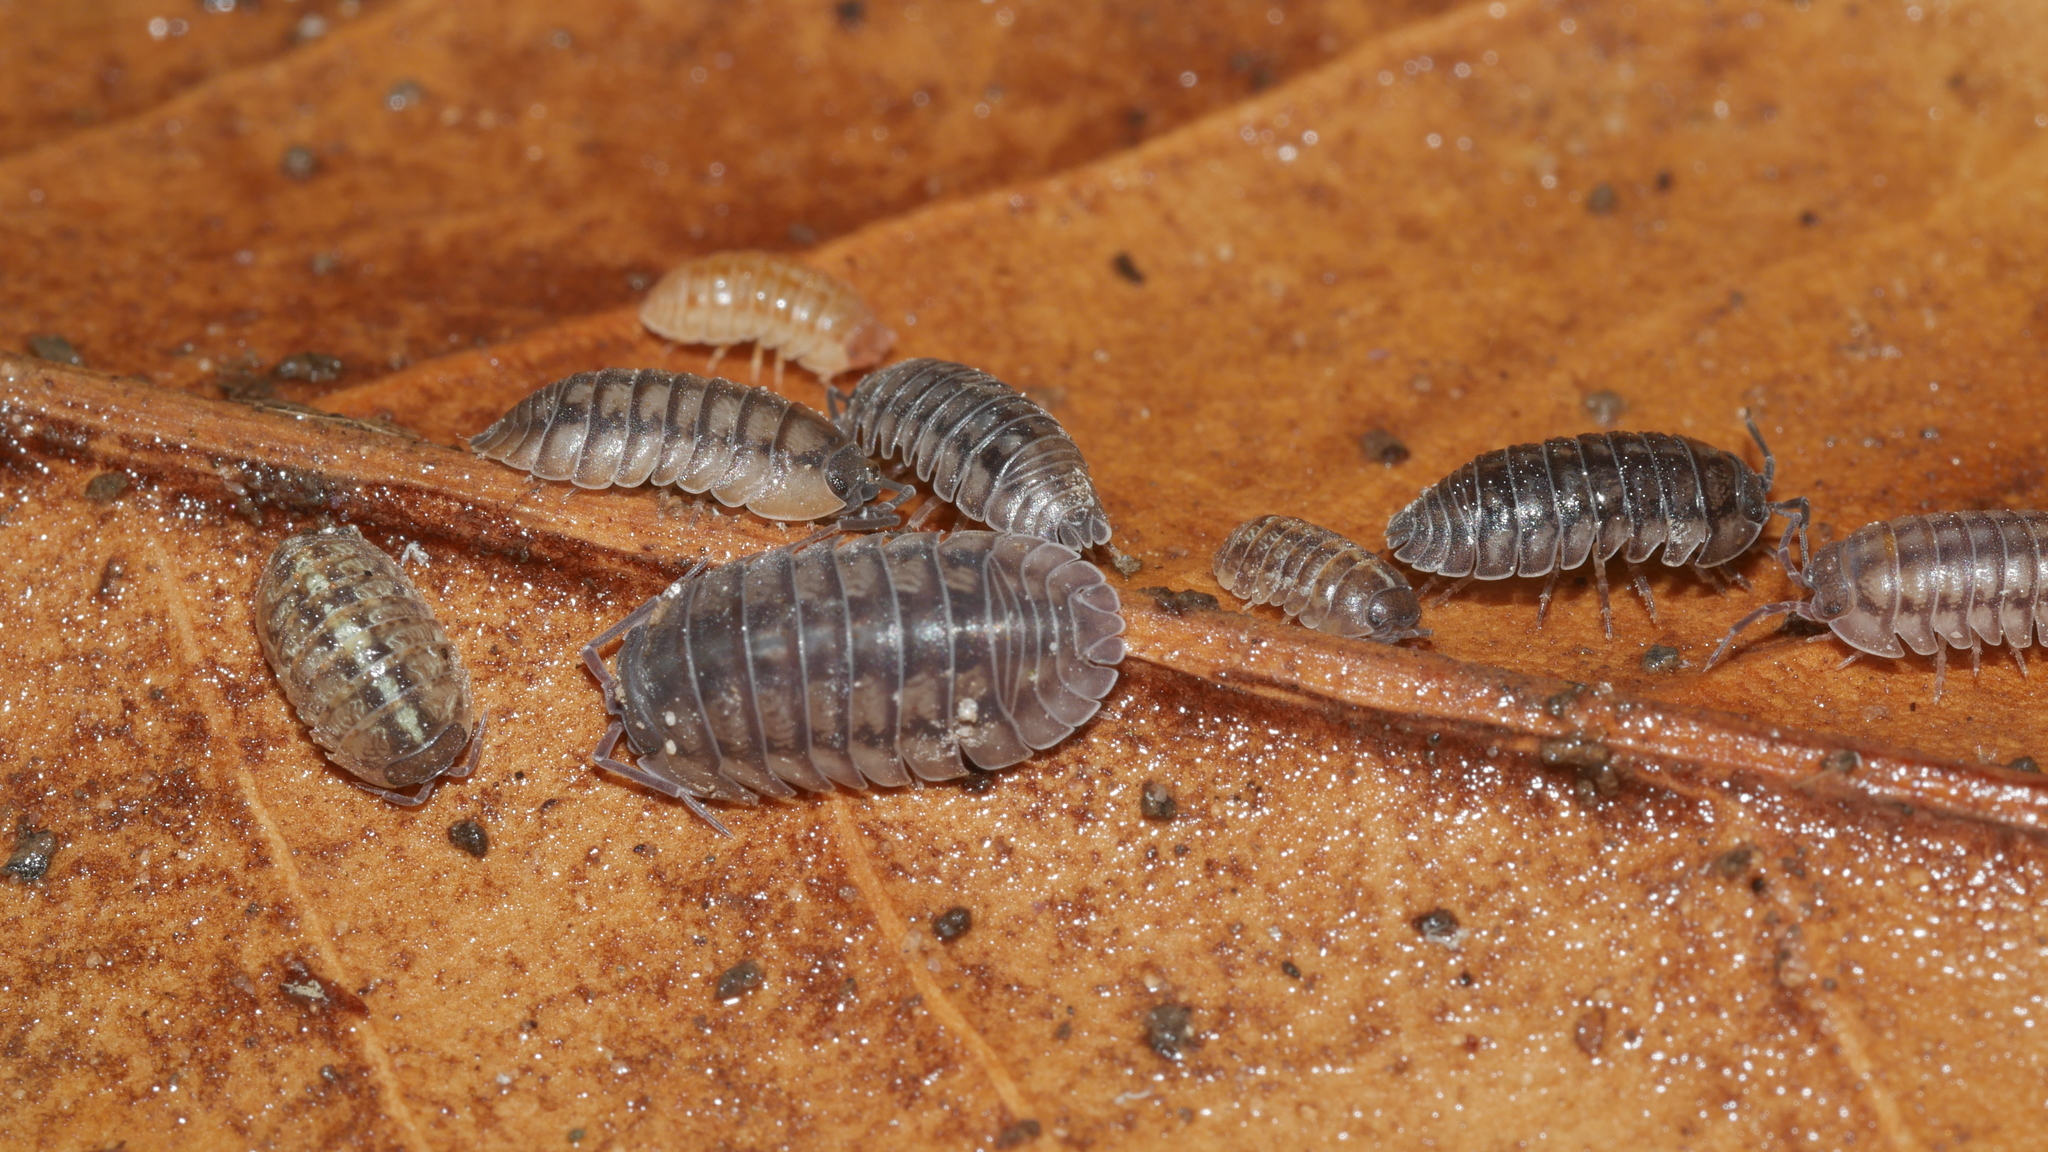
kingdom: Animalia
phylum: Arthropoda
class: Malacostraca
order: Isopoda
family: Armadillidiidae
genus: Armadillidium
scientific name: Armadillidium nasatum
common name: Isopod
